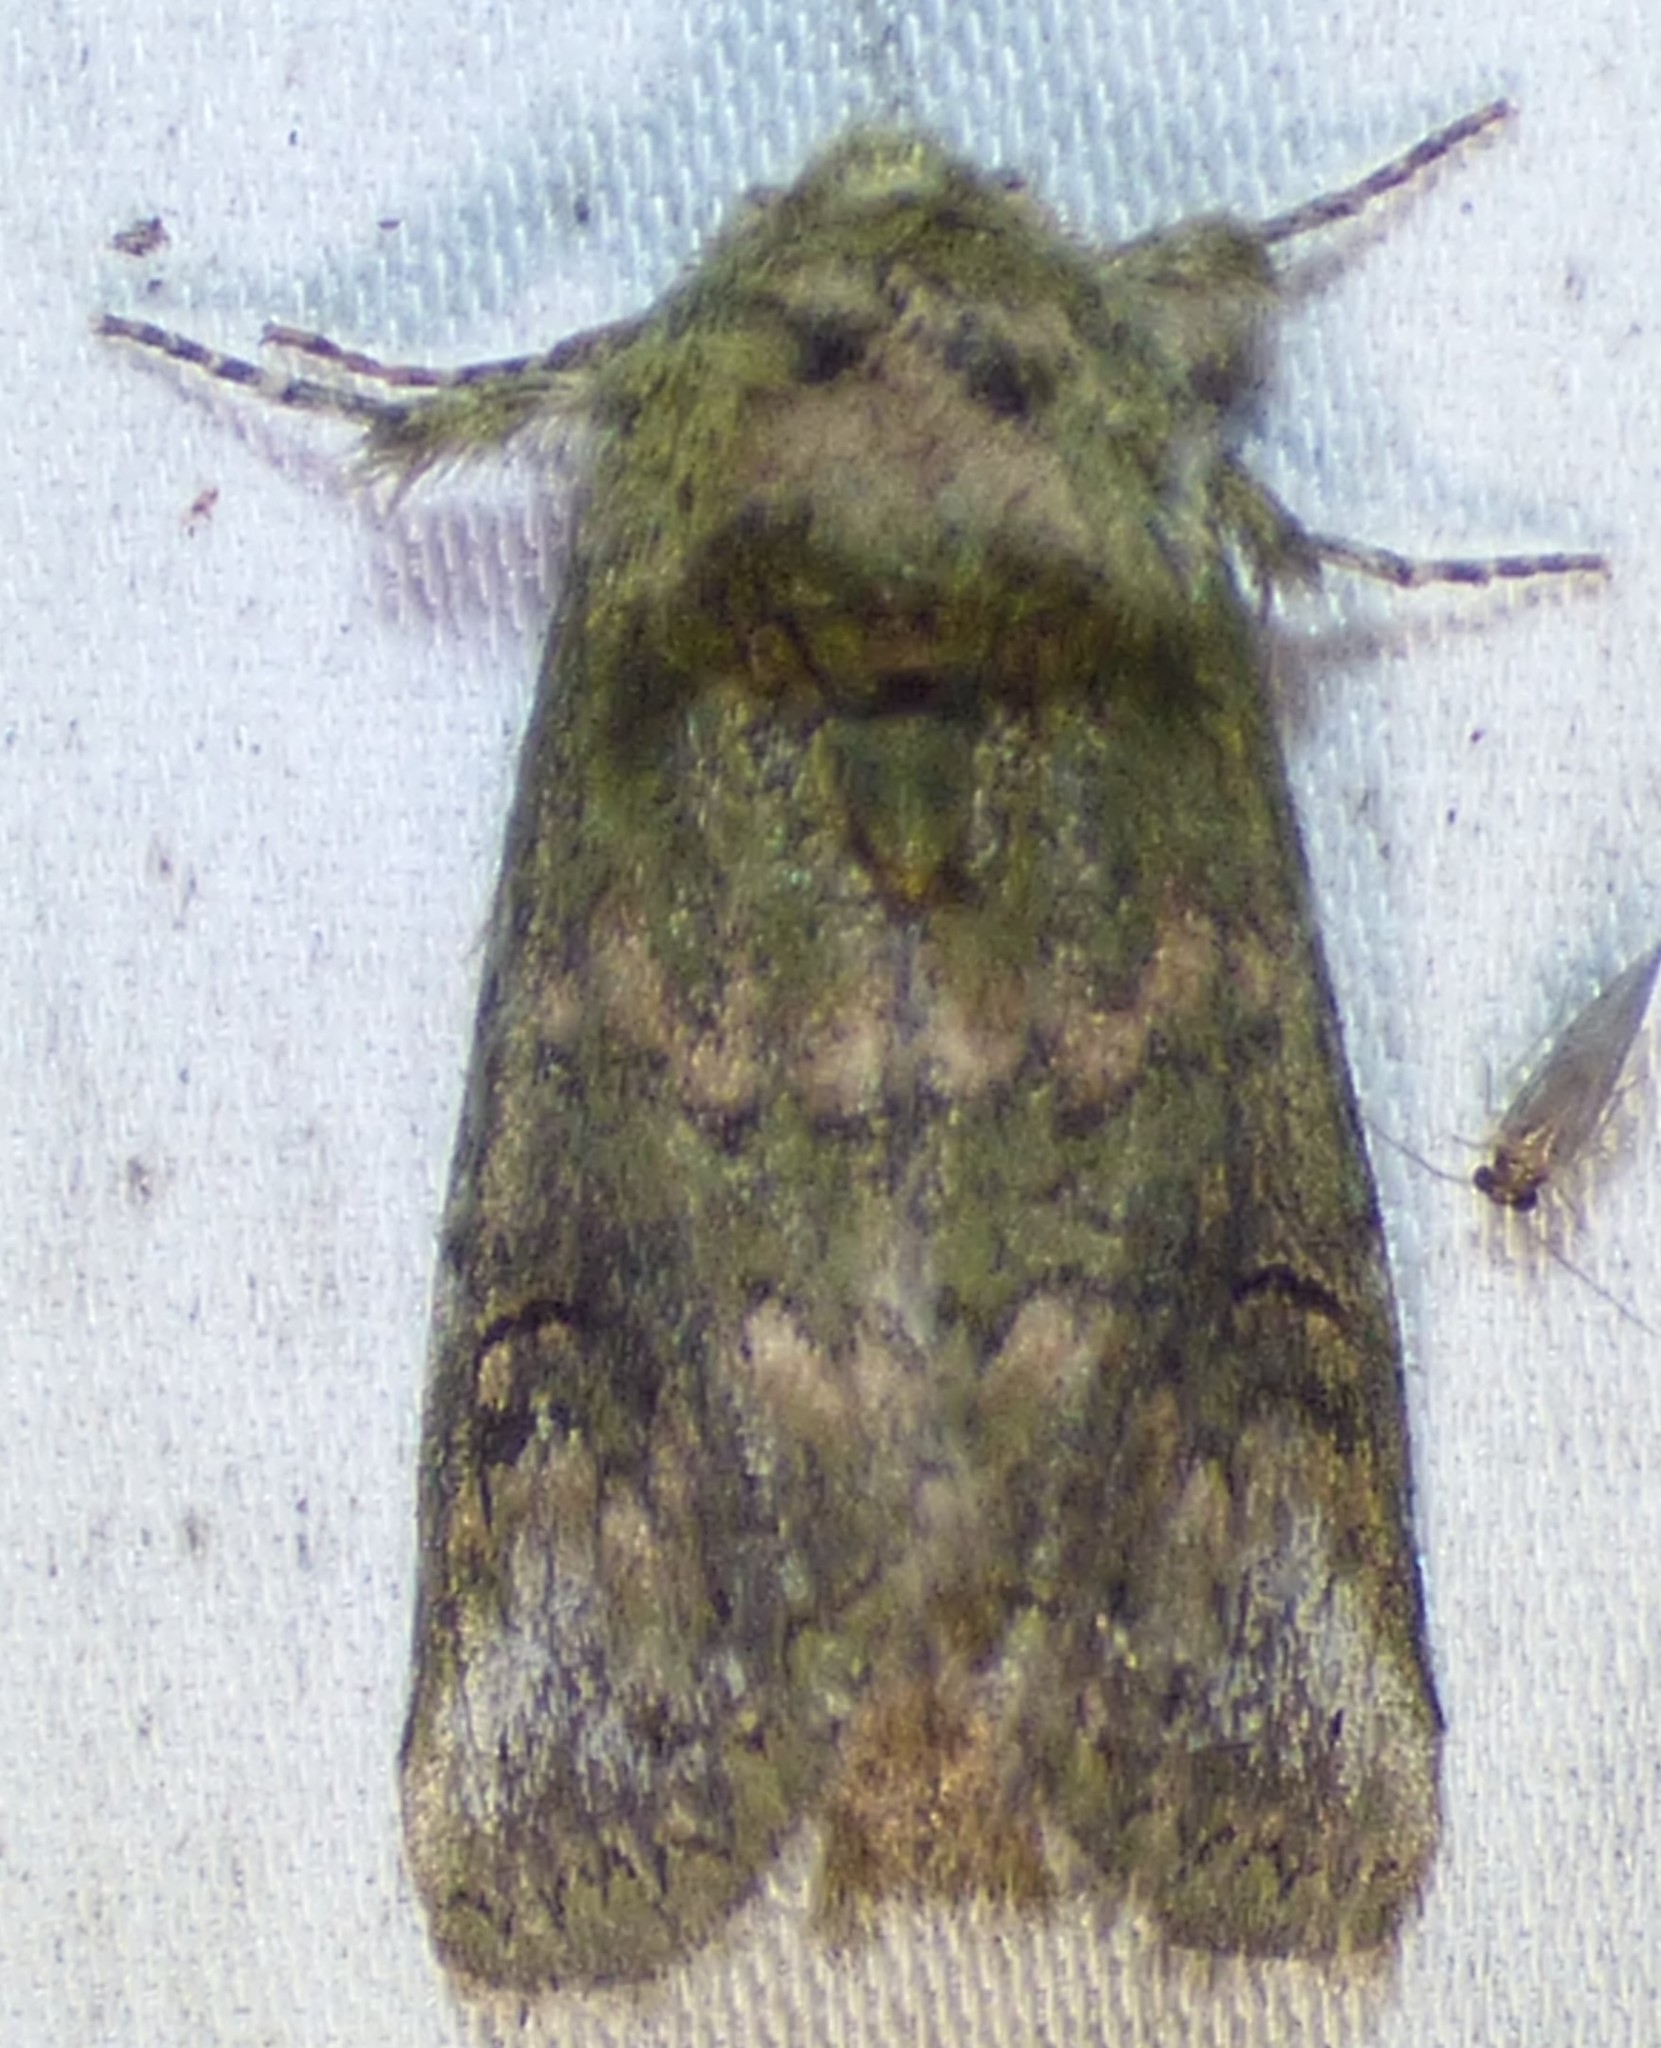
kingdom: Animalia
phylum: Arthropoda
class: Insecta
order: Lepidoptera
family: Notodontidae
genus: Disphragis
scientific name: Disphragis Cecrita biundata
